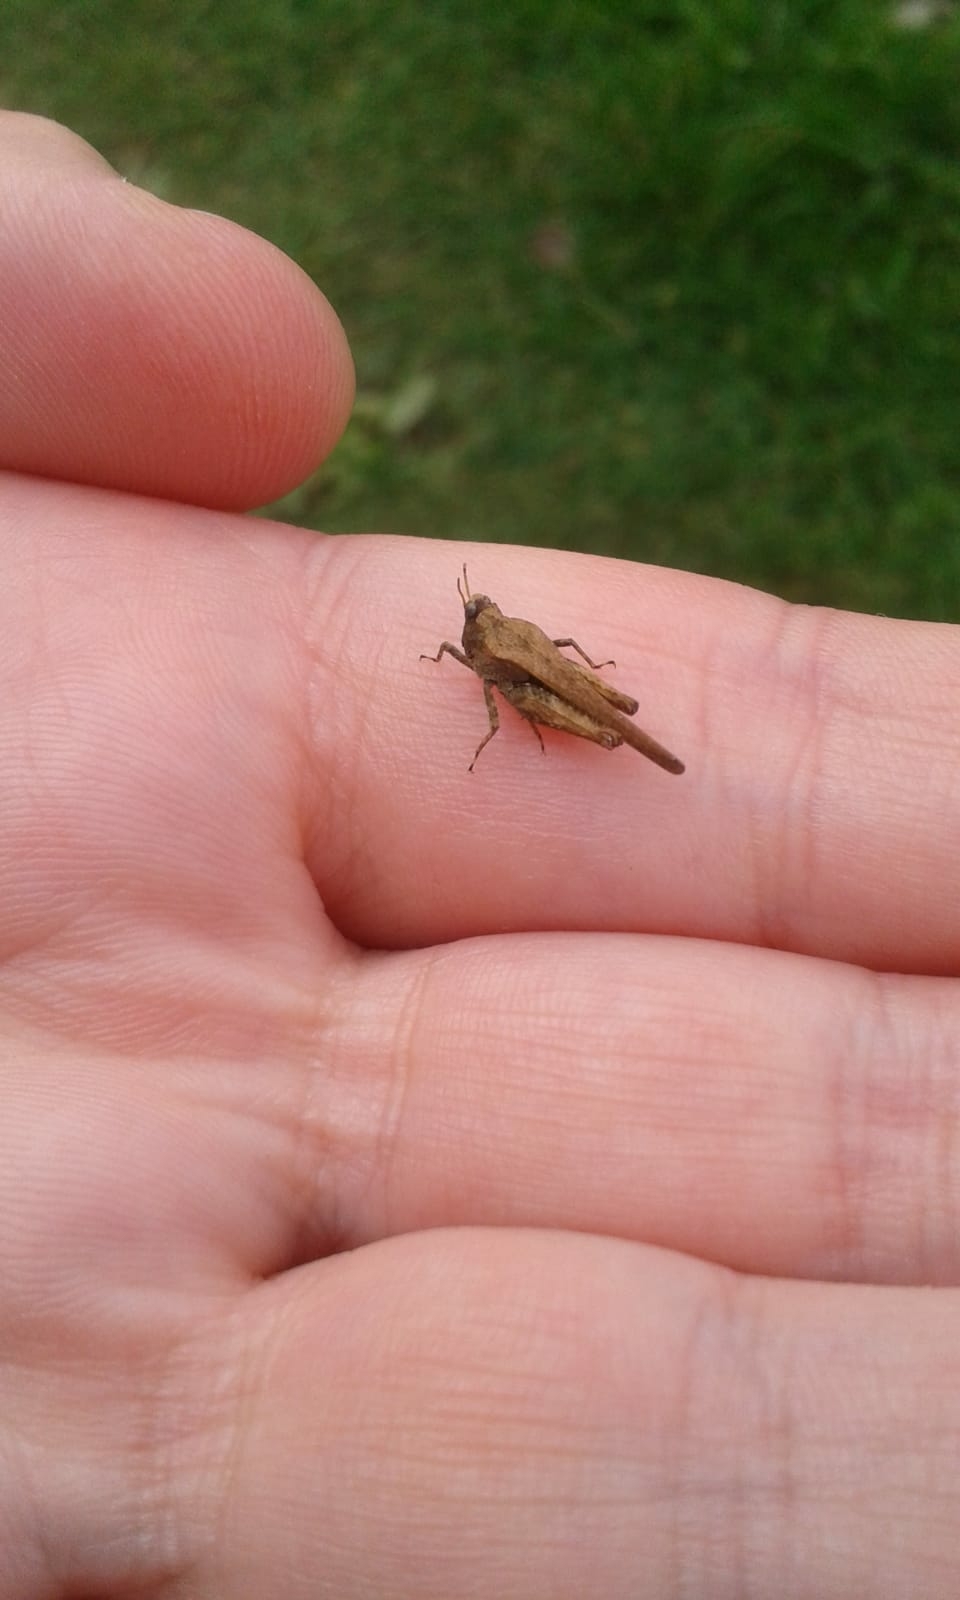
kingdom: Animalia
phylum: Arthropoda
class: Insecta
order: Orthoptera
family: Tetrigidae
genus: Tetrix
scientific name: Tetrix subulata
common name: Slender ground-hopper
